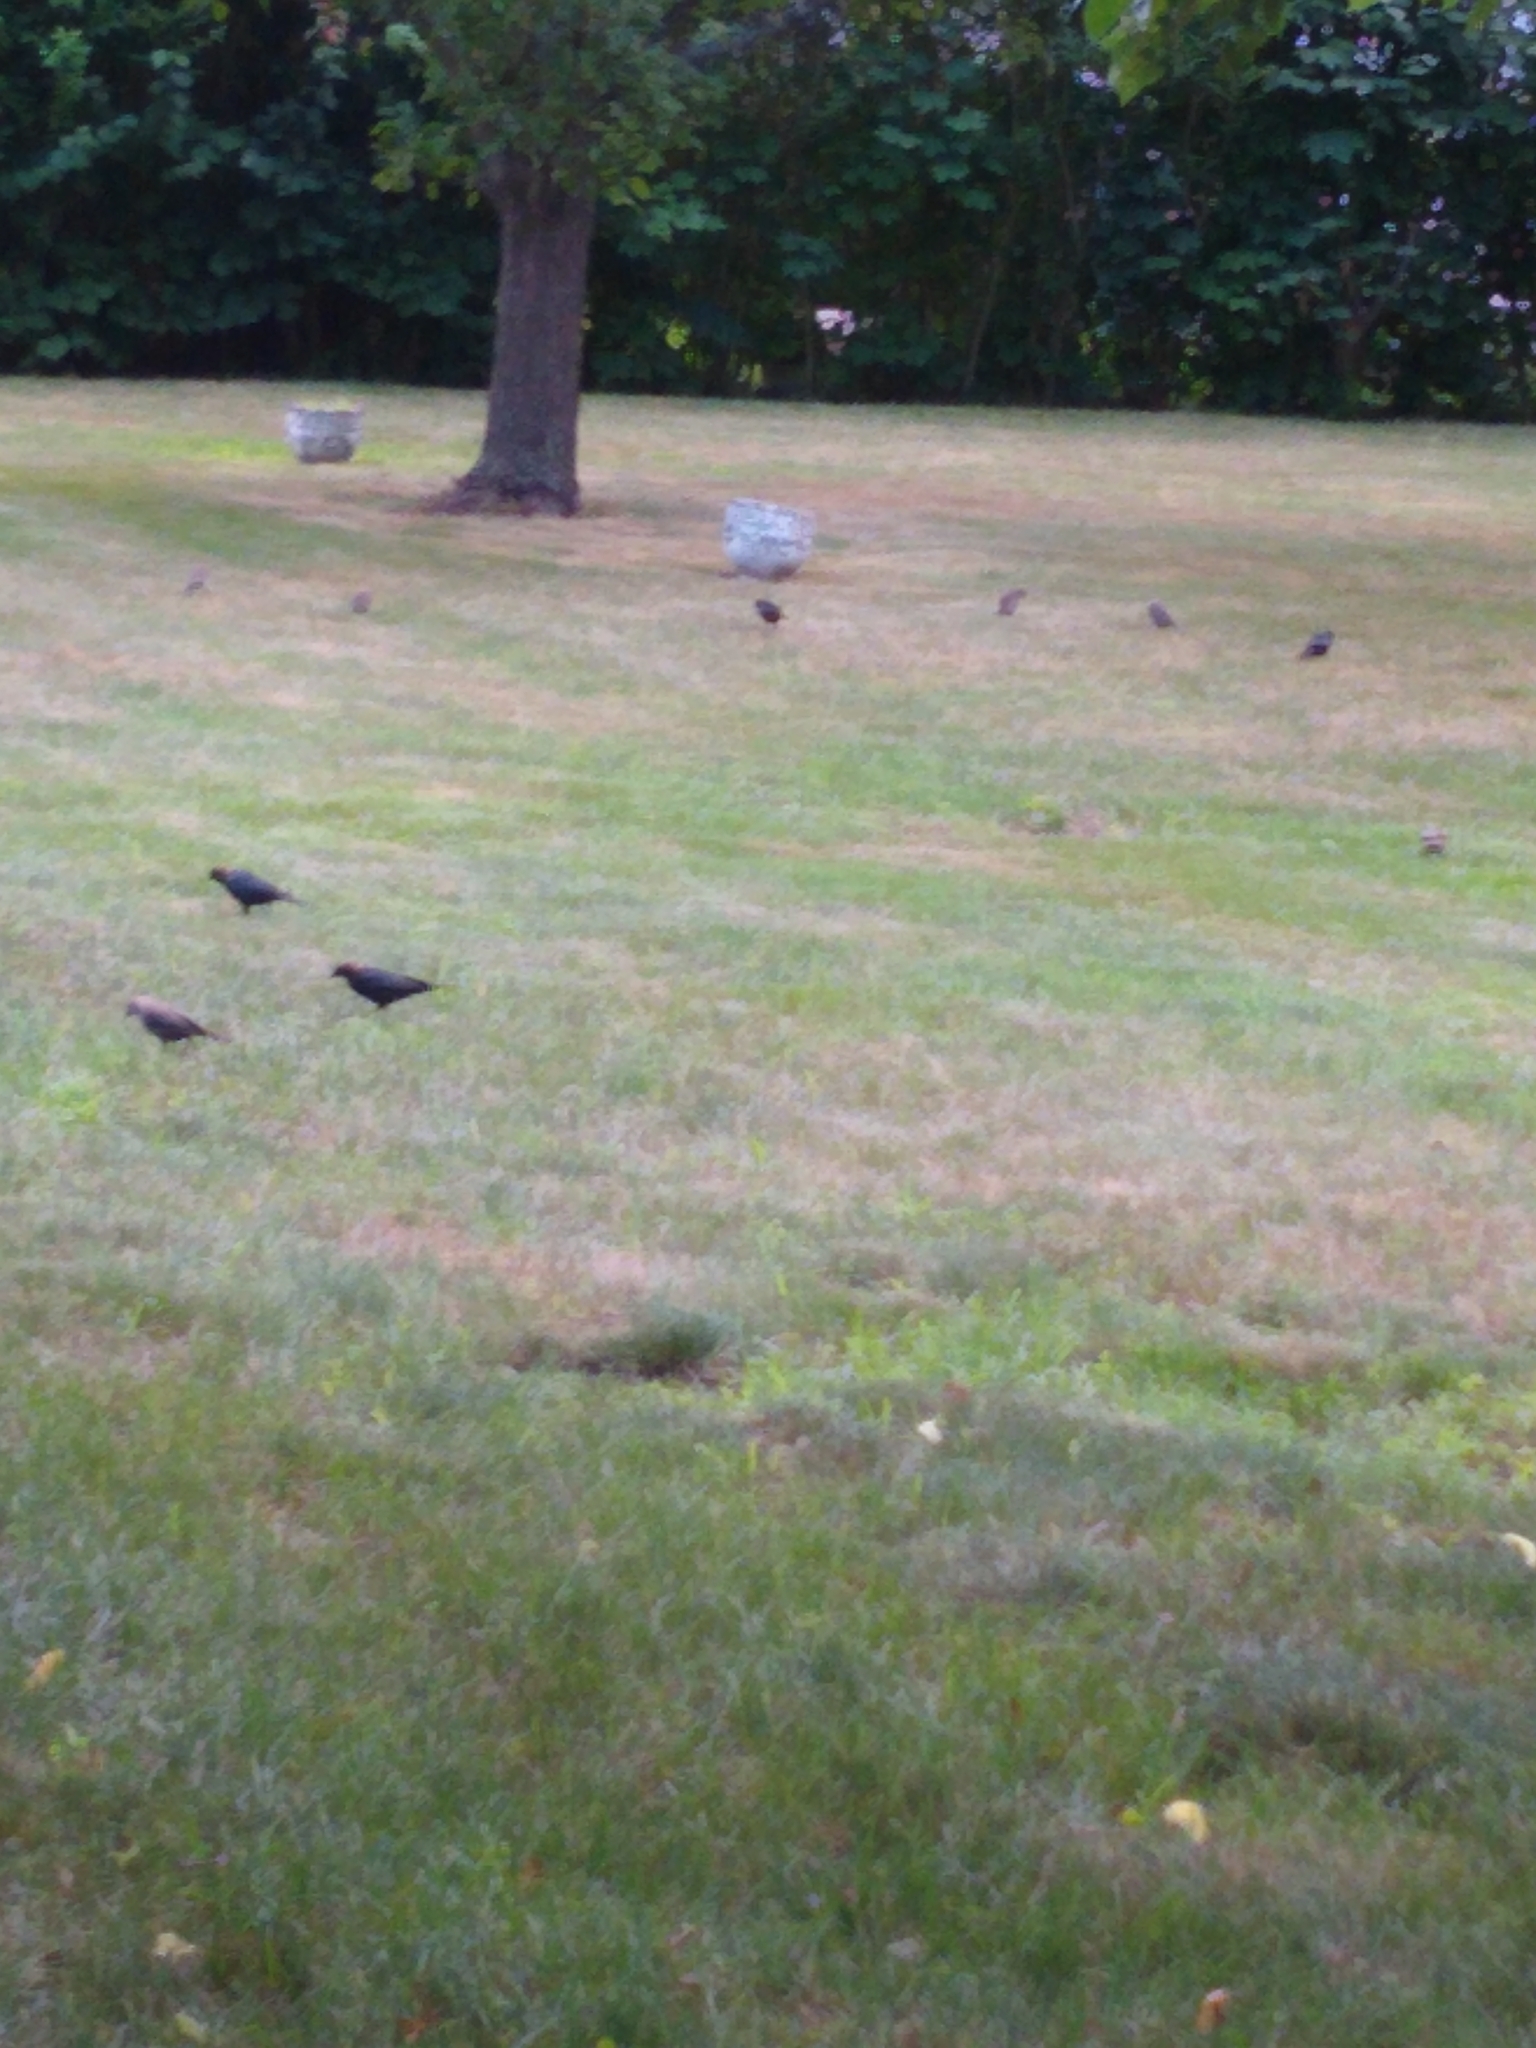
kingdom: Animalia
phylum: Chordata
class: Aves
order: Passeriformes
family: Icteridae
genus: Molothrus
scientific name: Molothrus ater
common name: Brown-headed cowbird
